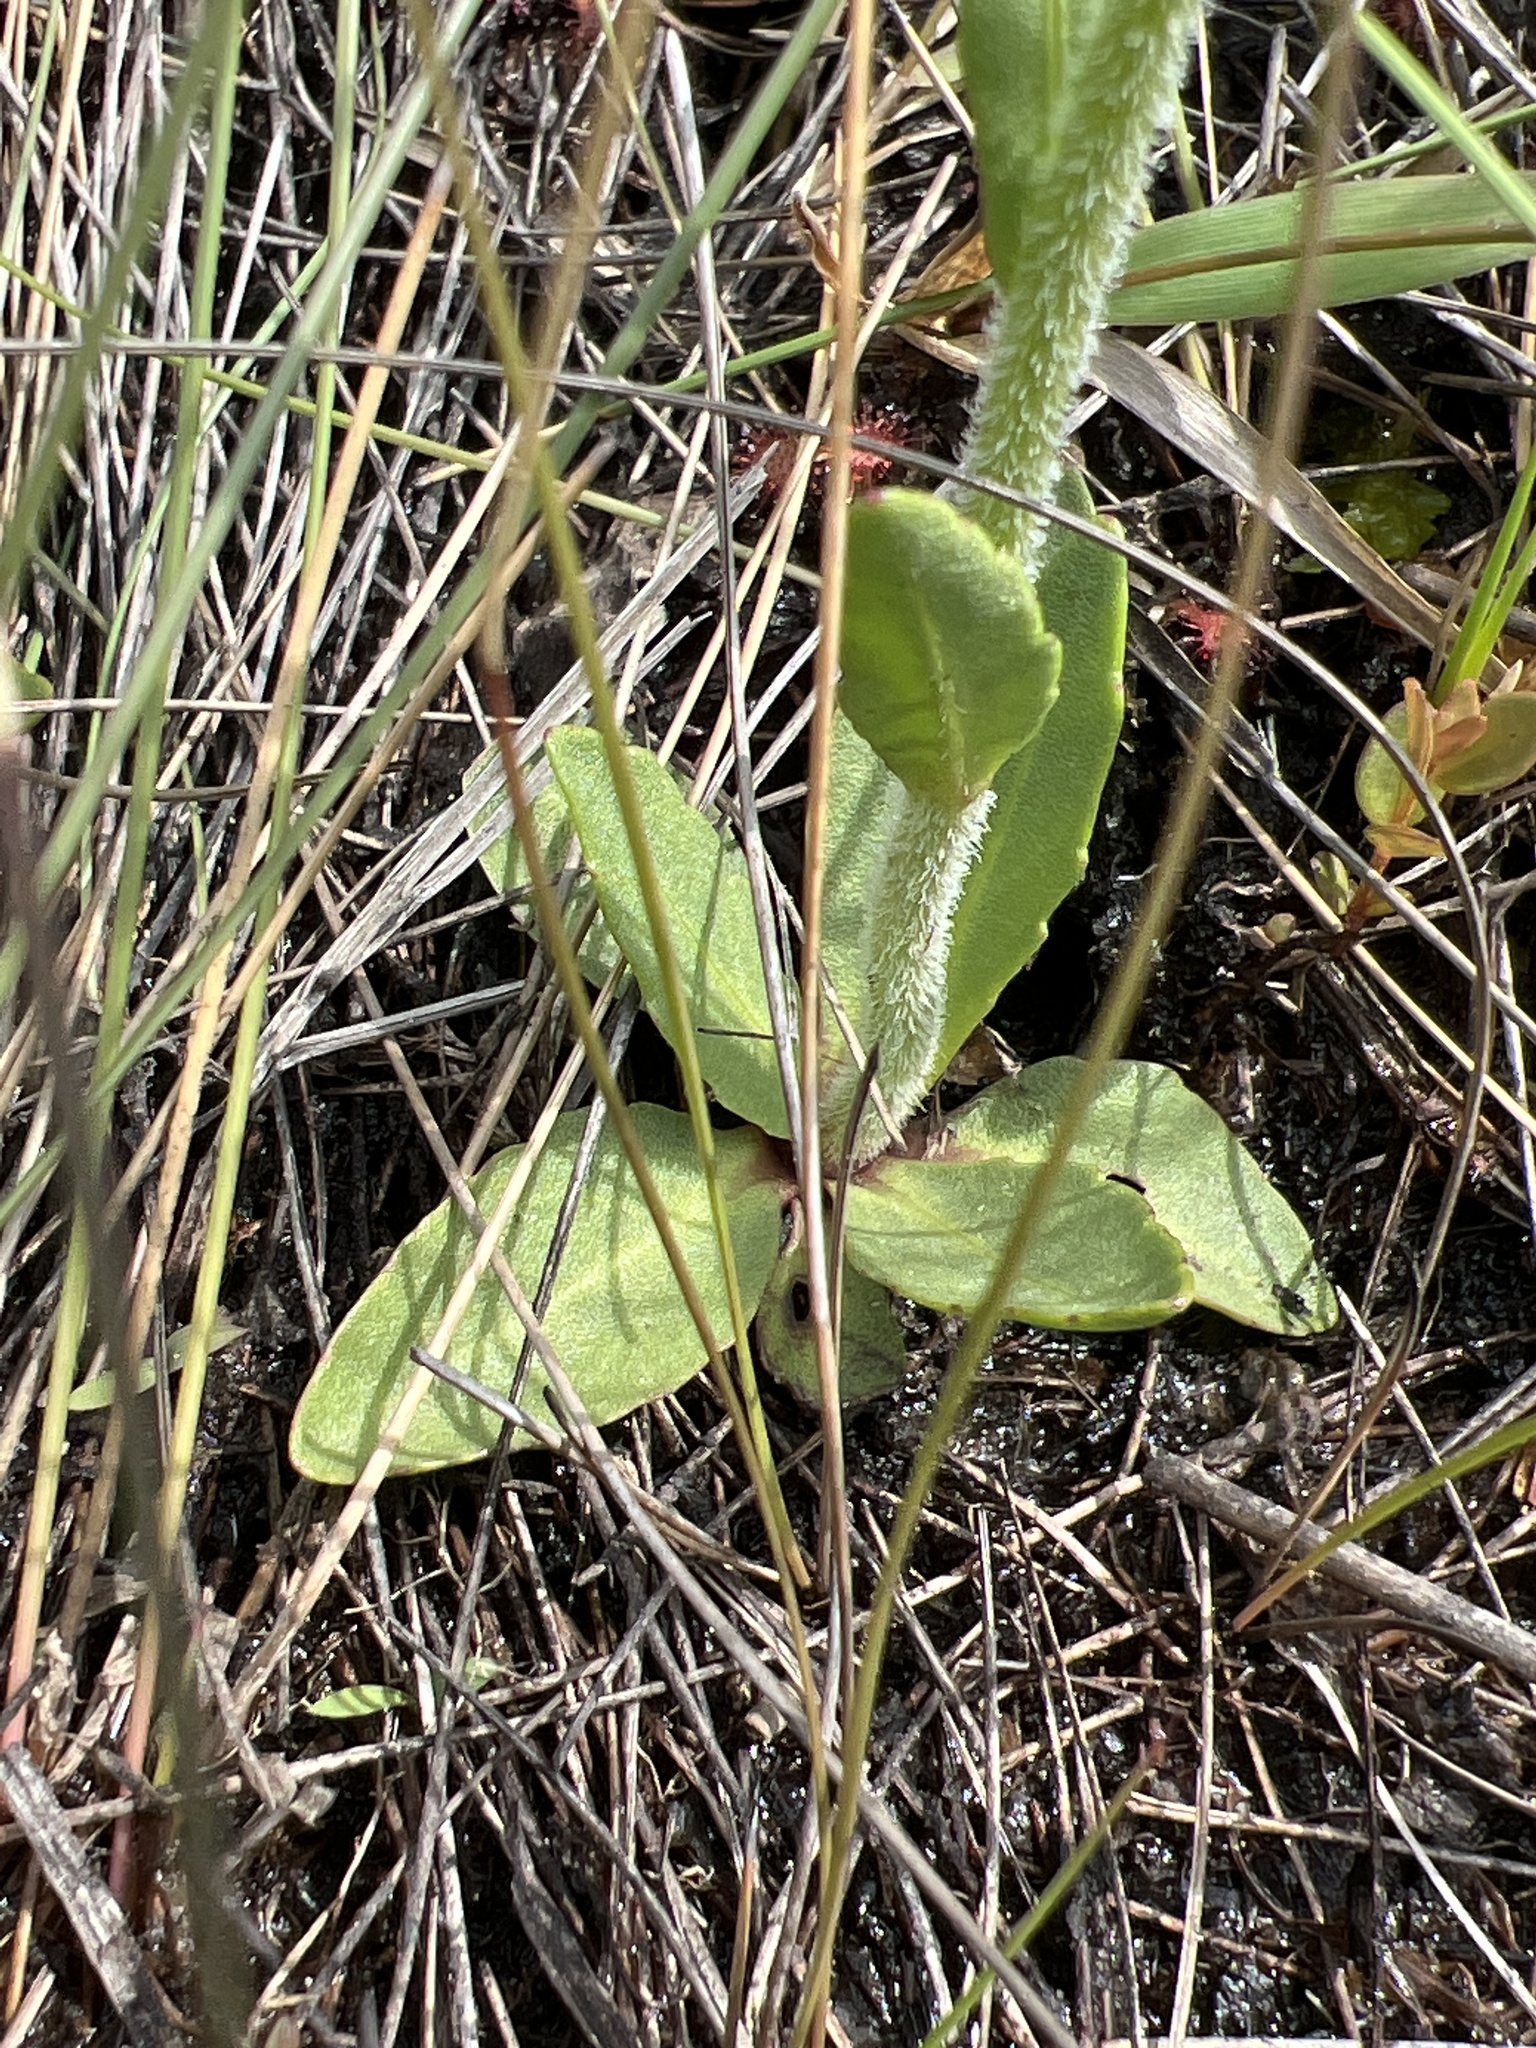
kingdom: Plantae
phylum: Tracheophyta
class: Magnoliopsida
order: Asterales
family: Asteraceae
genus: Helenium
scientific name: Helenium brevifolium
